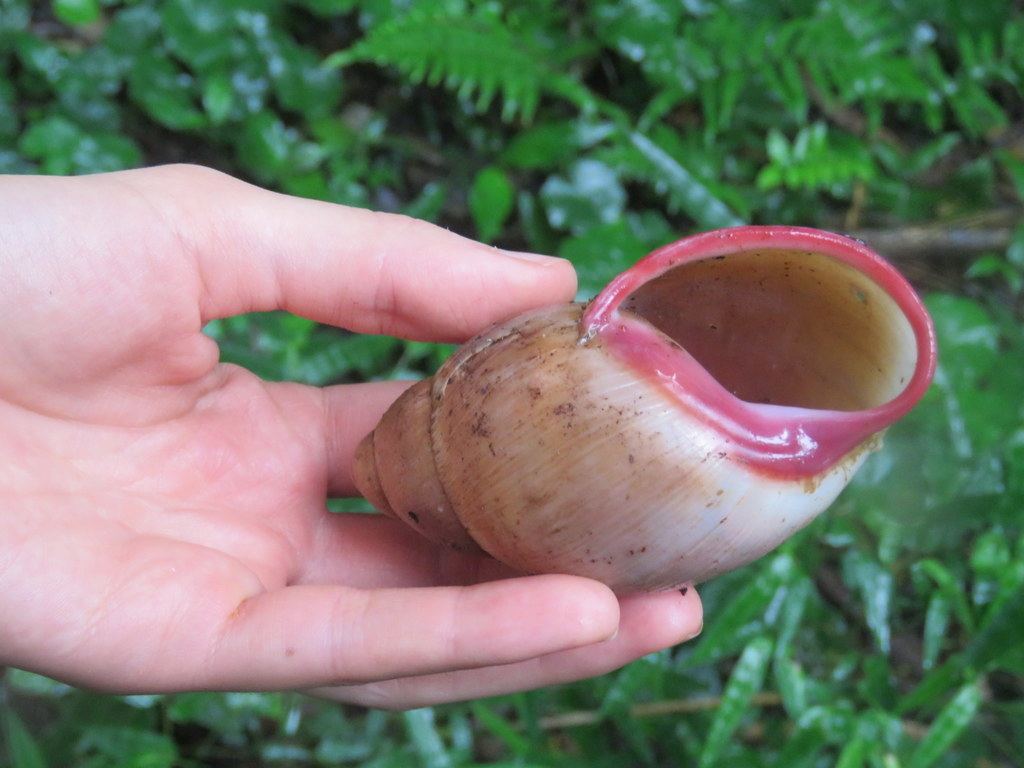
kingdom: Animalia
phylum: Mollusca
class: Gastropoda
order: Stylommatophora
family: Strophocheilidae
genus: Megalobulimus
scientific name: Megalobulimus sanctaepauli
